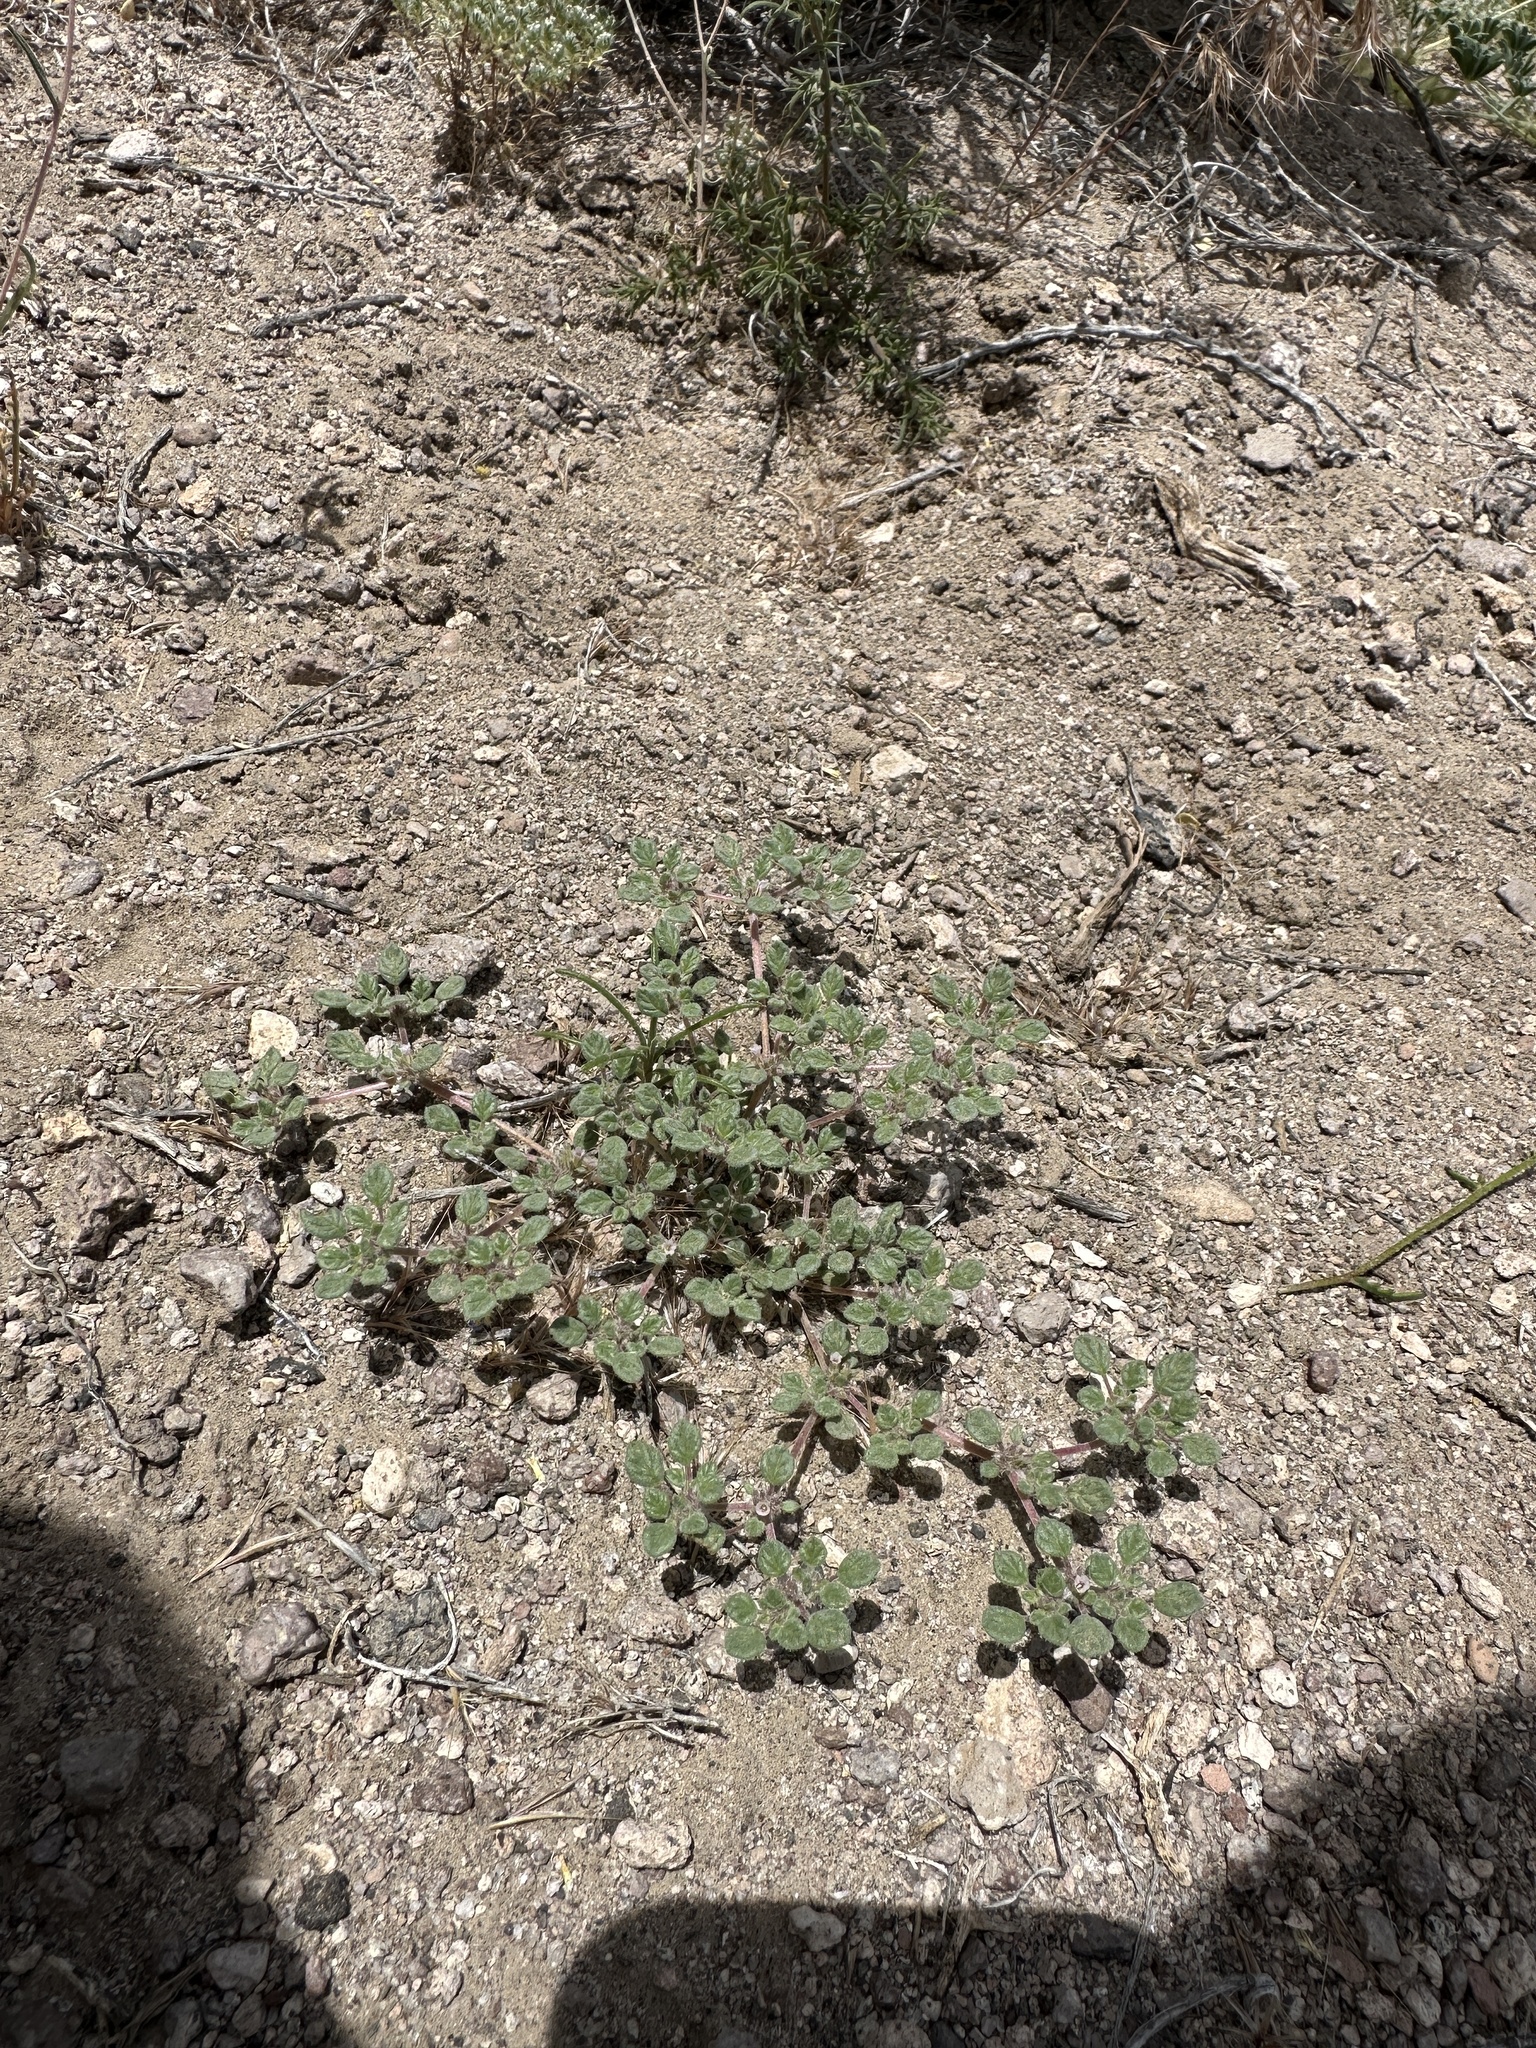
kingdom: Plantae
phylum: Tracheophyta
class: Magnoliopsida
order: Boraginales
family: Ehretiaceae
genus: Tiquilia
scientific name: Tiquilia nuttallii
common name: Rosette tiquilia
